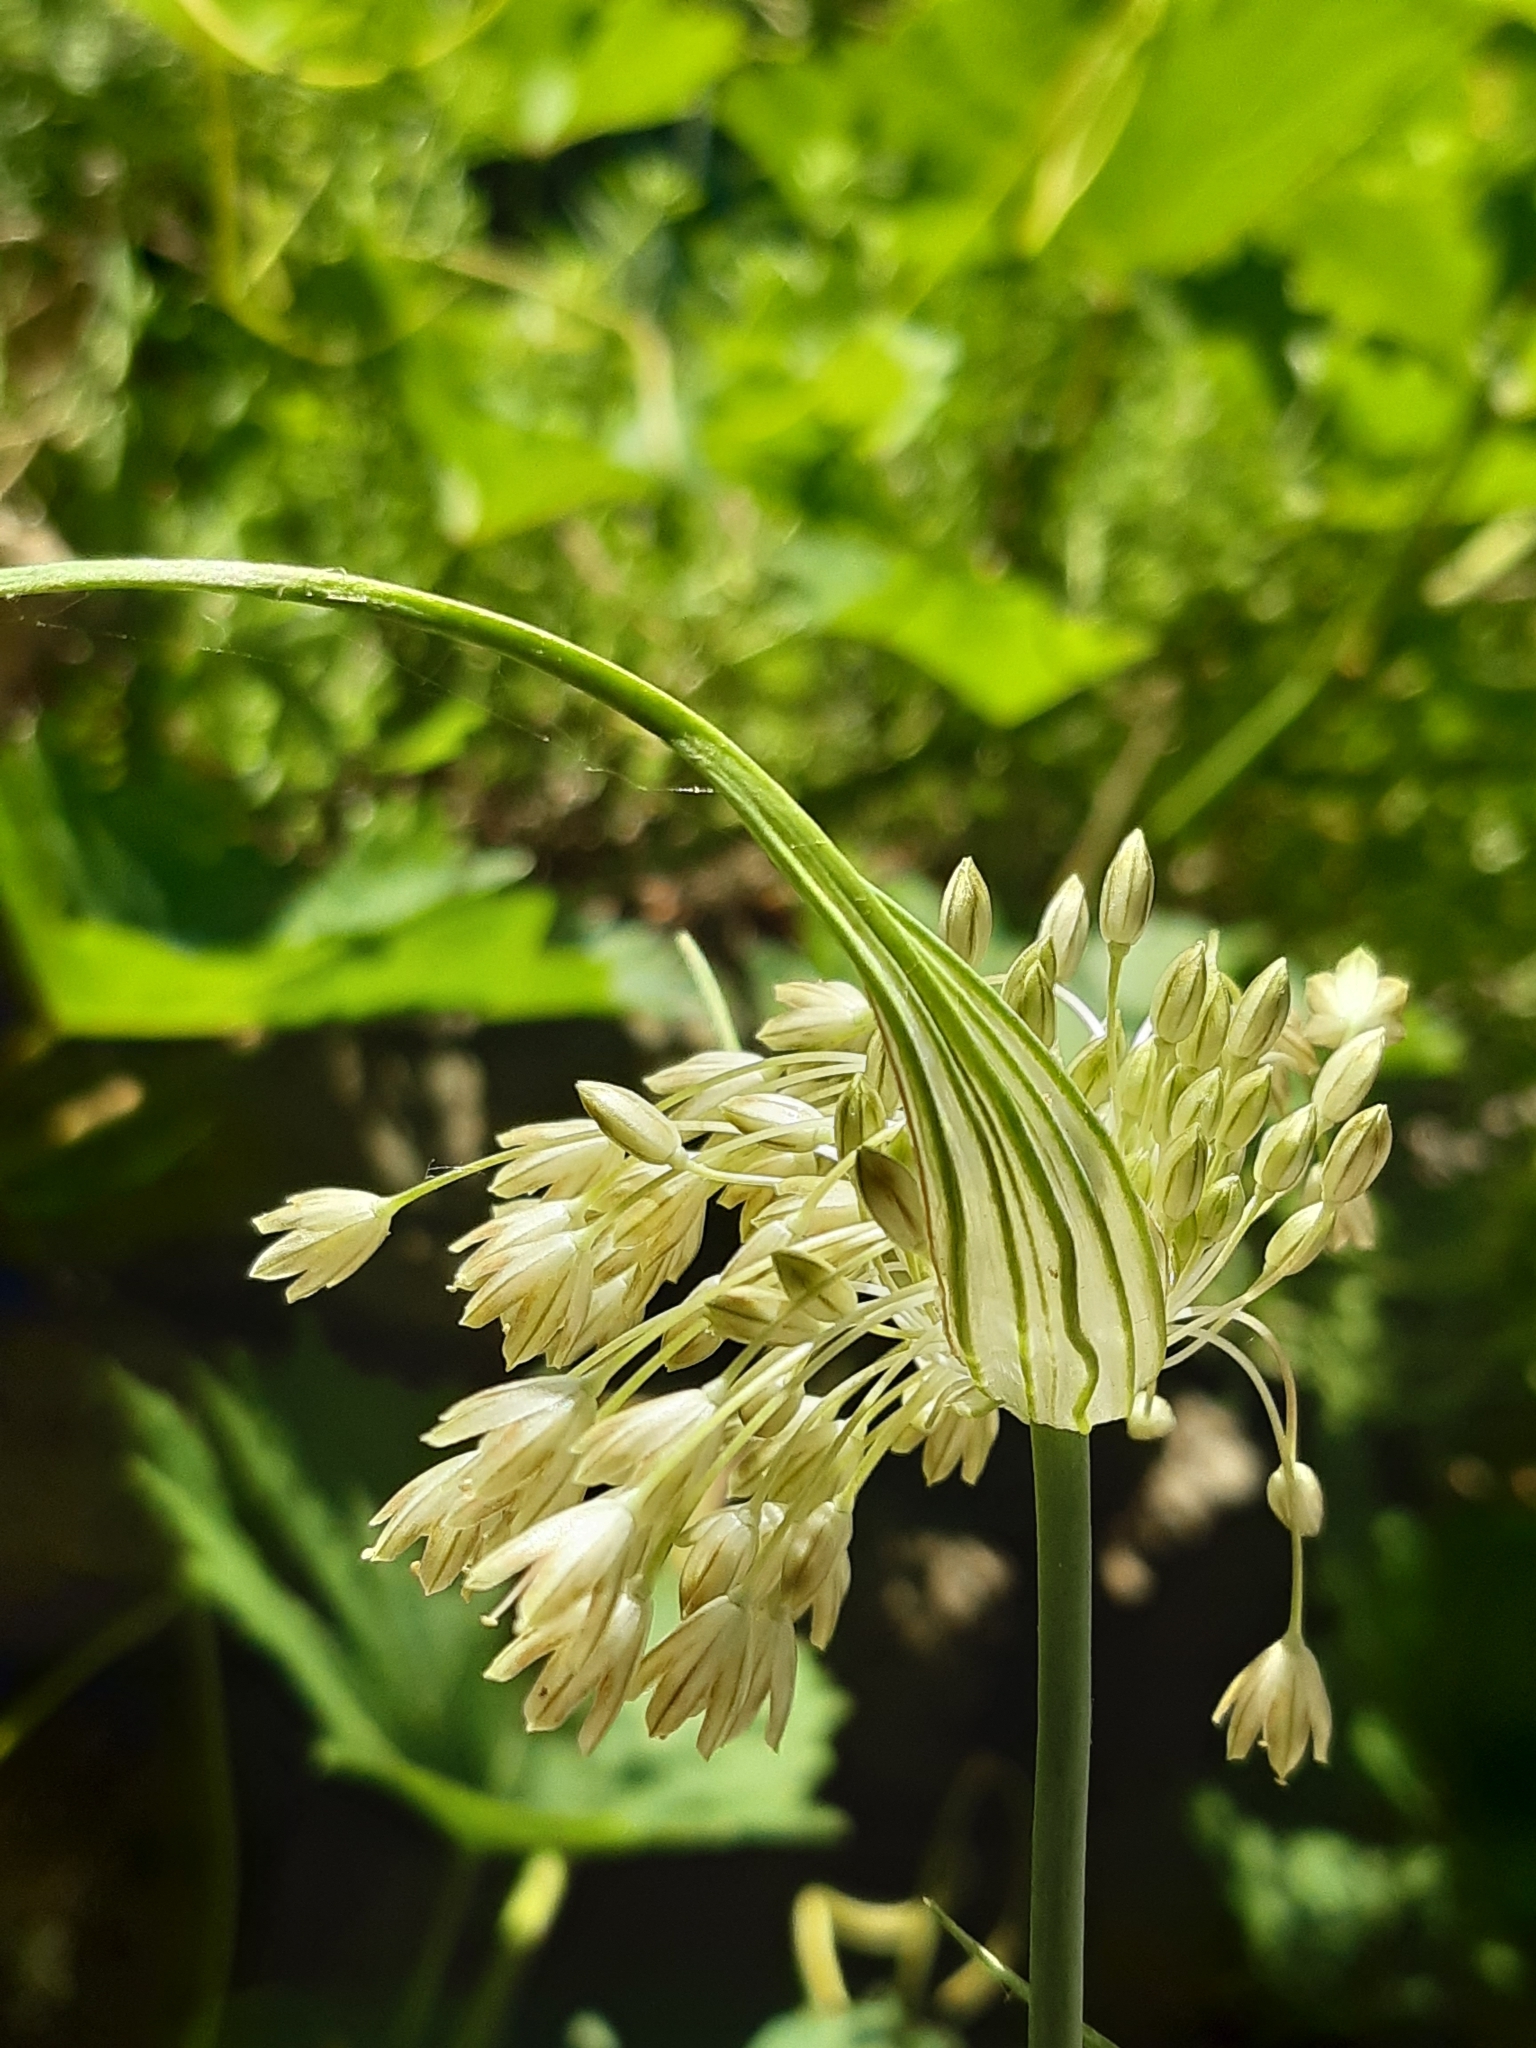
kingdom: Plantae
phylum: Tracheophyta
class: Liliopsida
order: Asparagales
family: Amaryllidaceae
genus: Allium
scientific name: Allium longispathum
